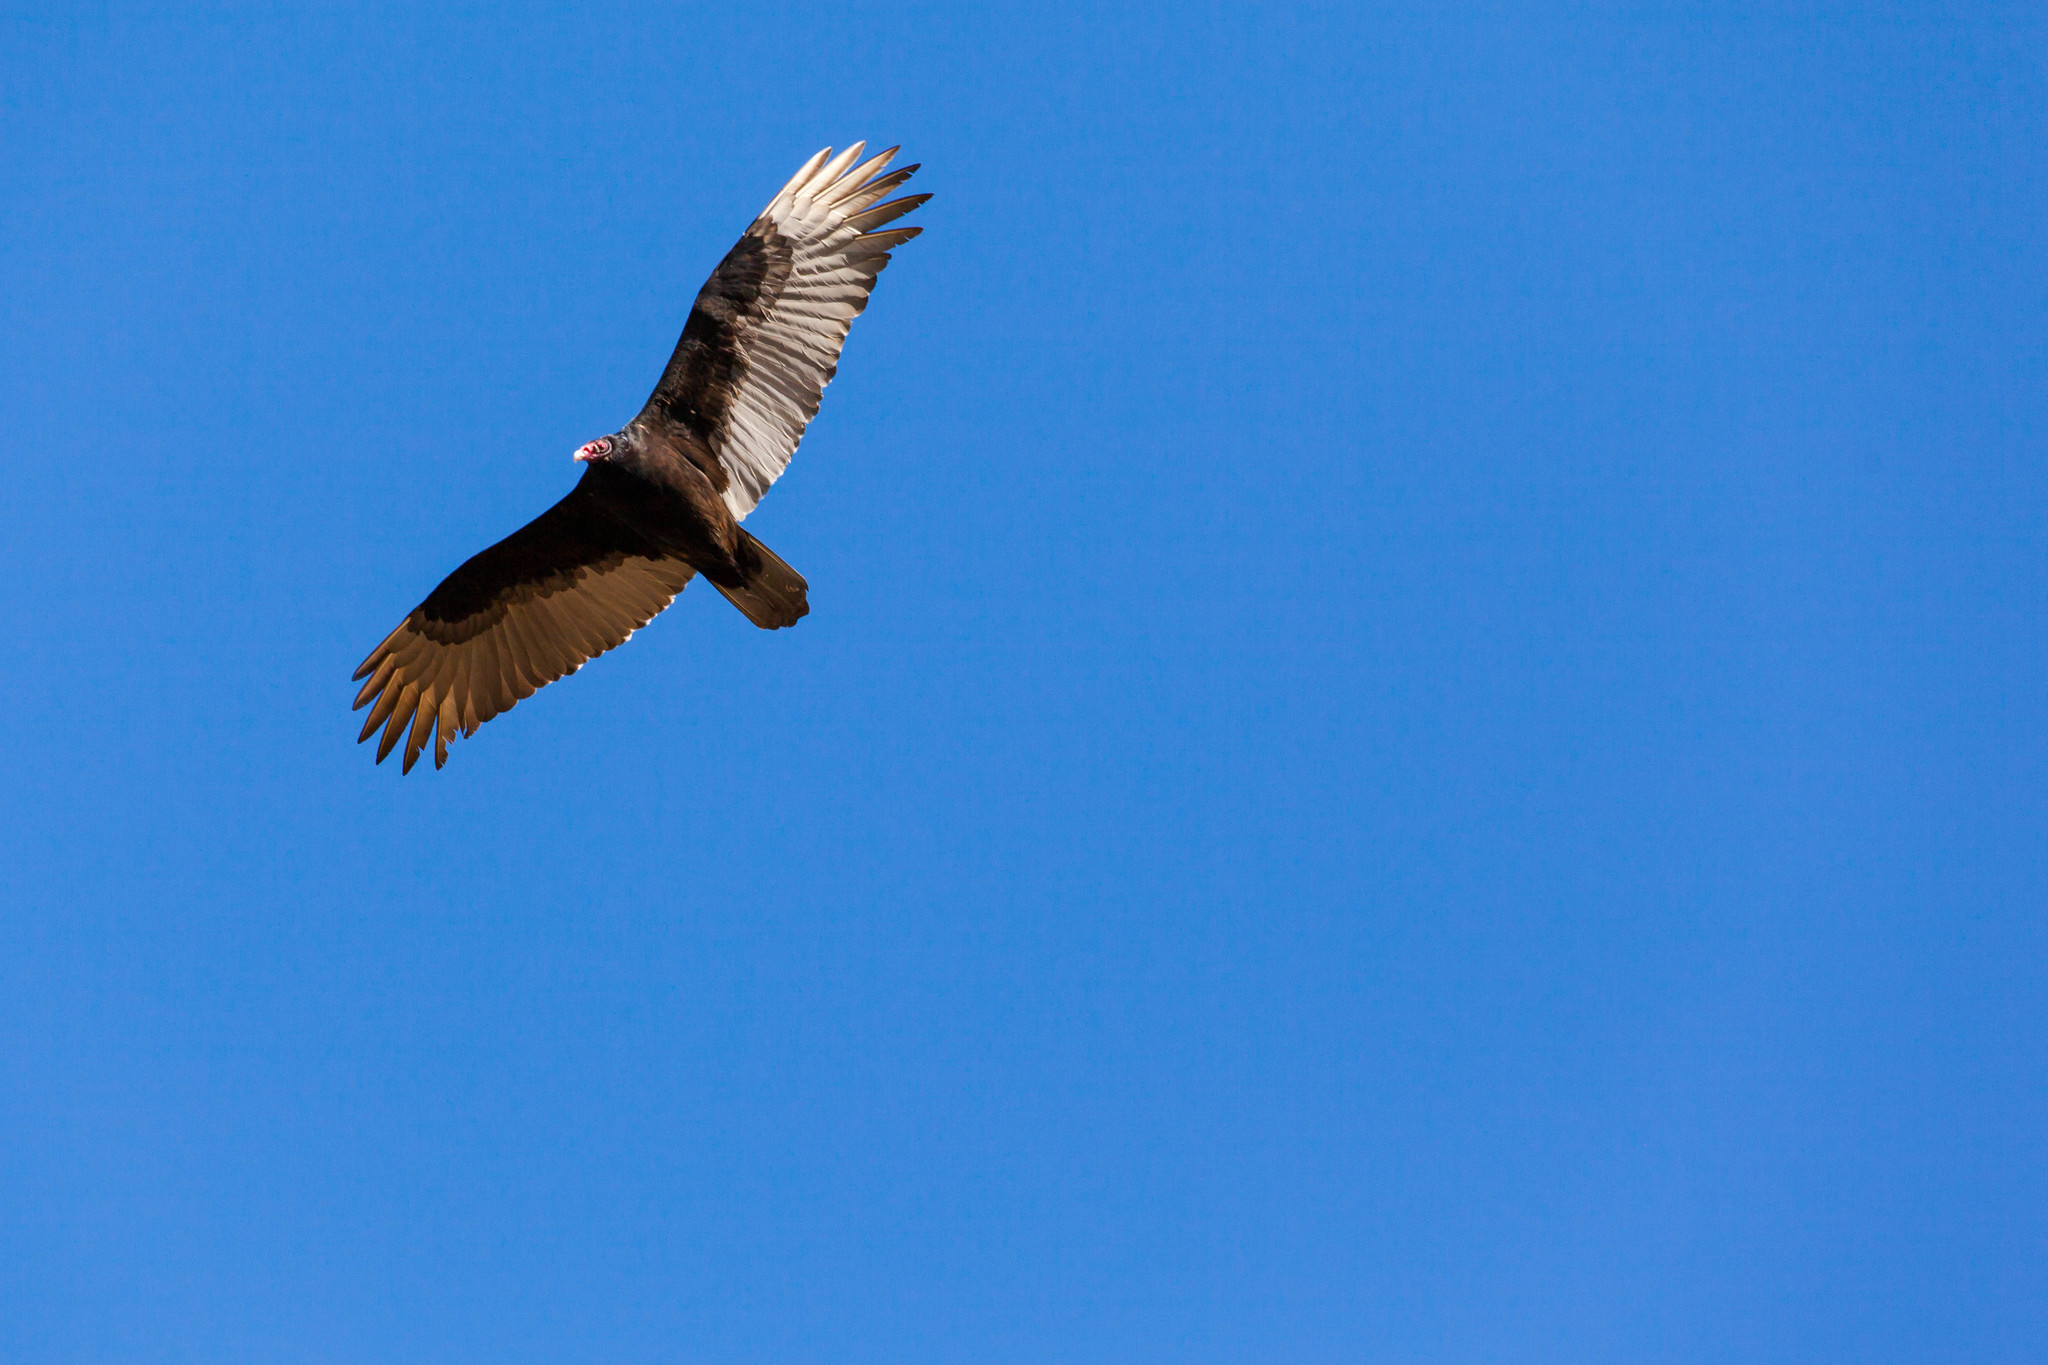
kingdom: Animalia
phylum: Chordata
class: Aves
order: Accipitriformes
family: Cathartidae
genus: Cathartes
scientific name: Cathartes aura
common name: Turkey vulture
